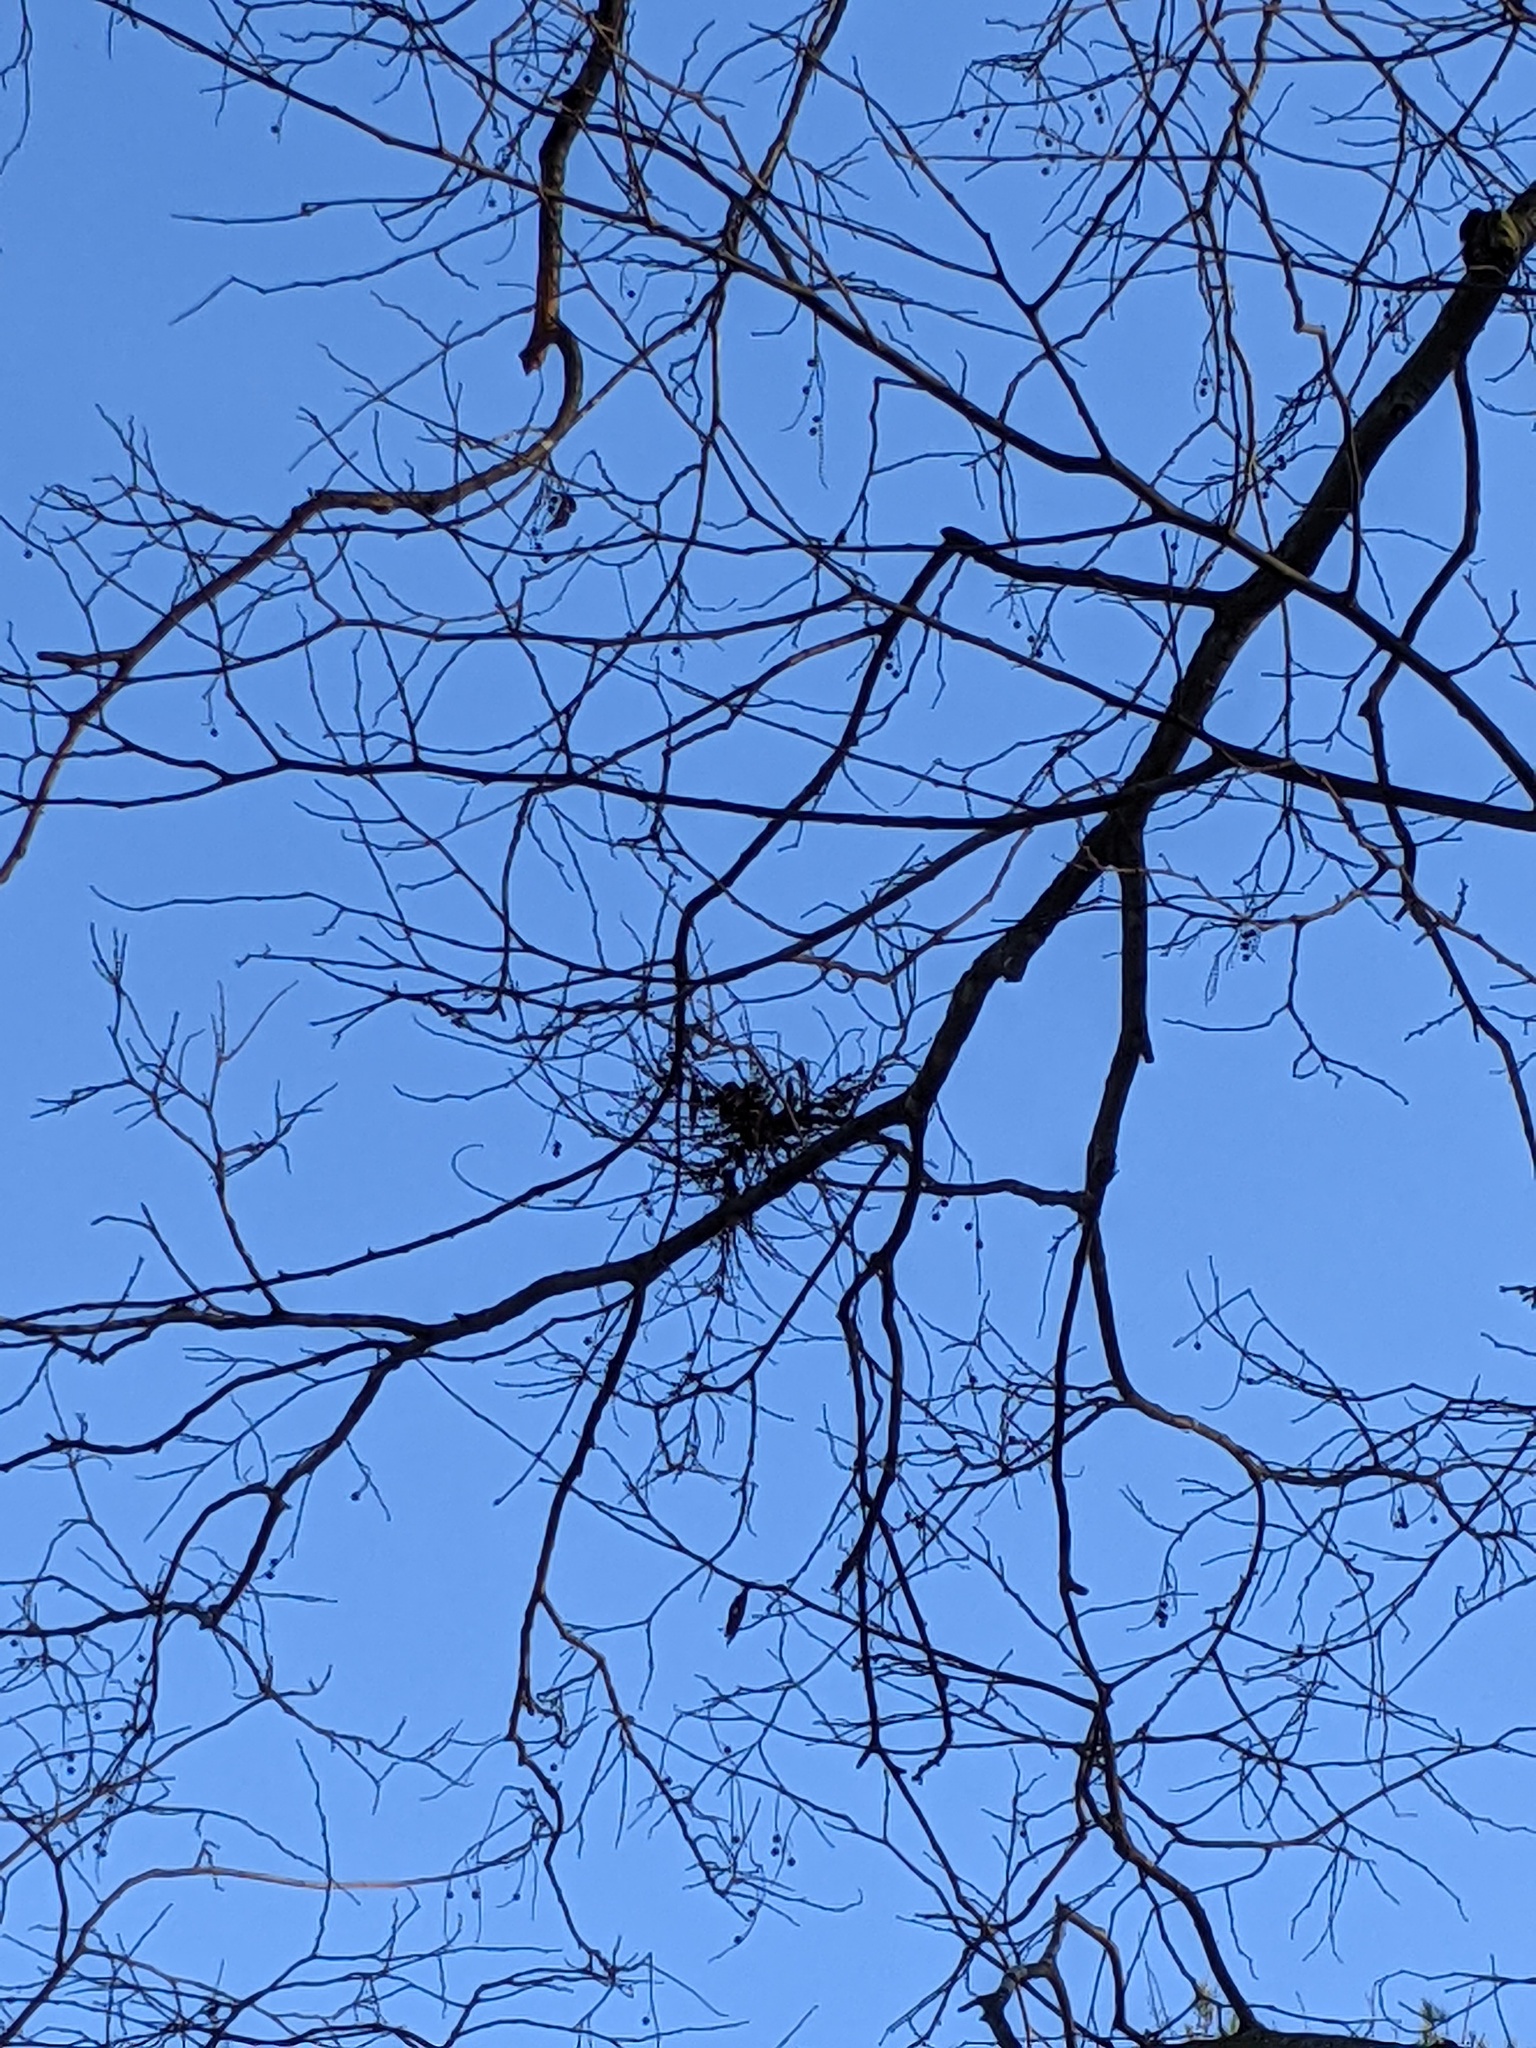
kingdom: Animalia
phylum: Arthropoda
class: Arachnida
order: Trombidiformes
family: Eriophyidae
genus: Aceria
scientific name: Aceria
